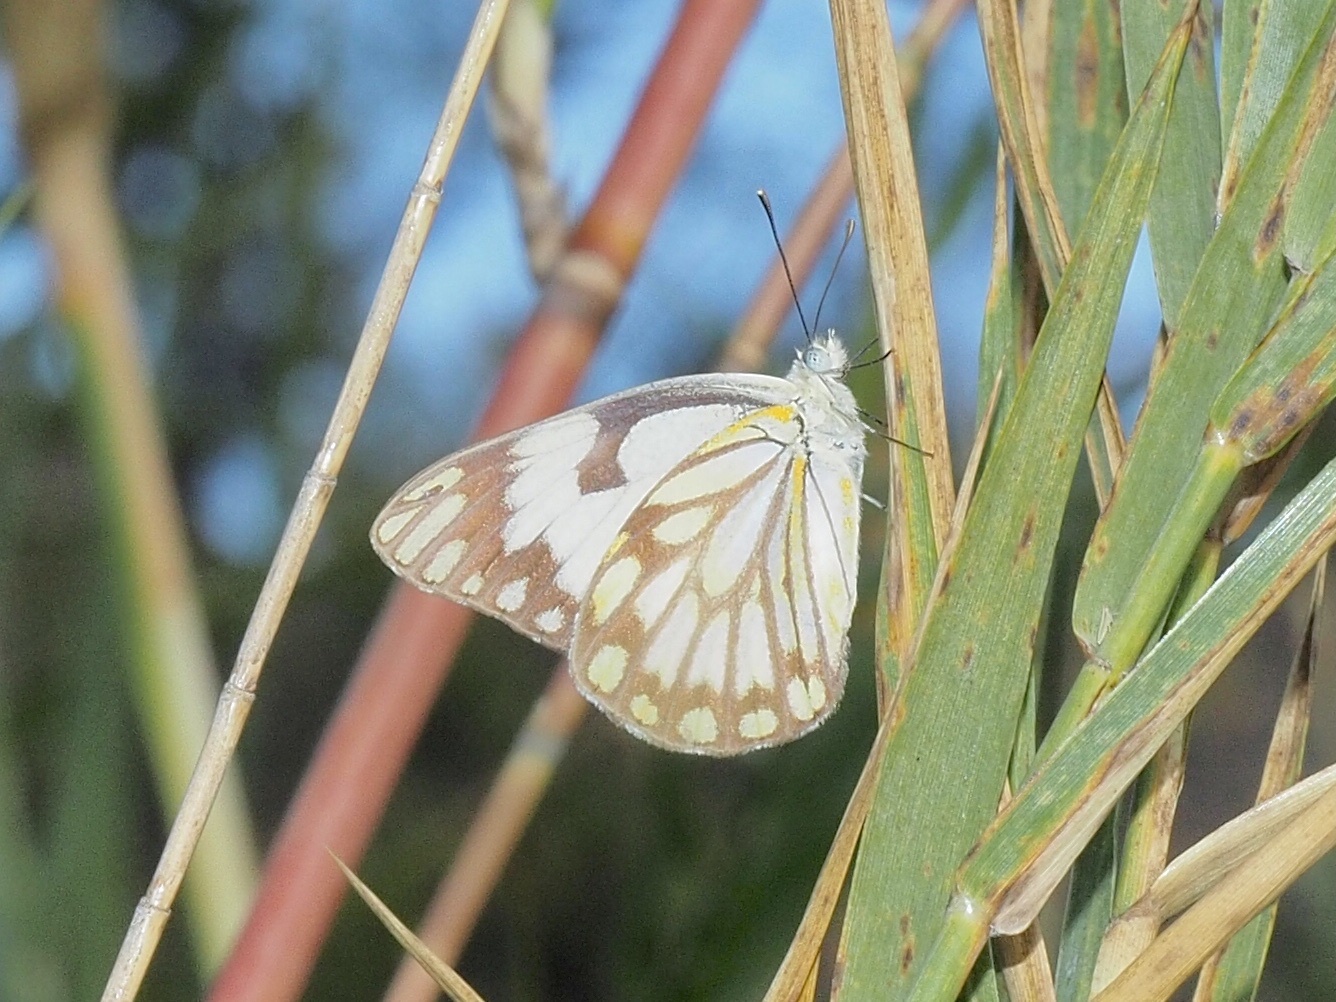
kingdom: Animalia
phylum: Arthropoda
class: Insecta
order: Lepidoptera
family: Pieridae
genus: Belenois
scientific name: Belenois aurota
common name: Brown-veined white
